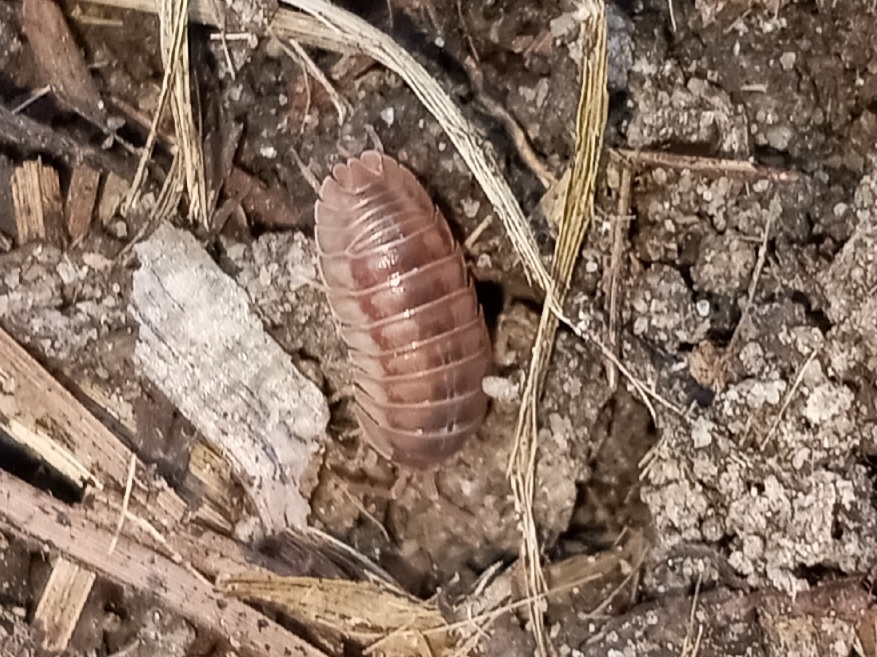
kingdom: Animalia
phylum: Arthropoda
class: Malacostraca
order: Isopoda
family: Armadillidiidae
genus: Armadillidium
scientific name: Armadillidium nasatum
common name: Isopod
